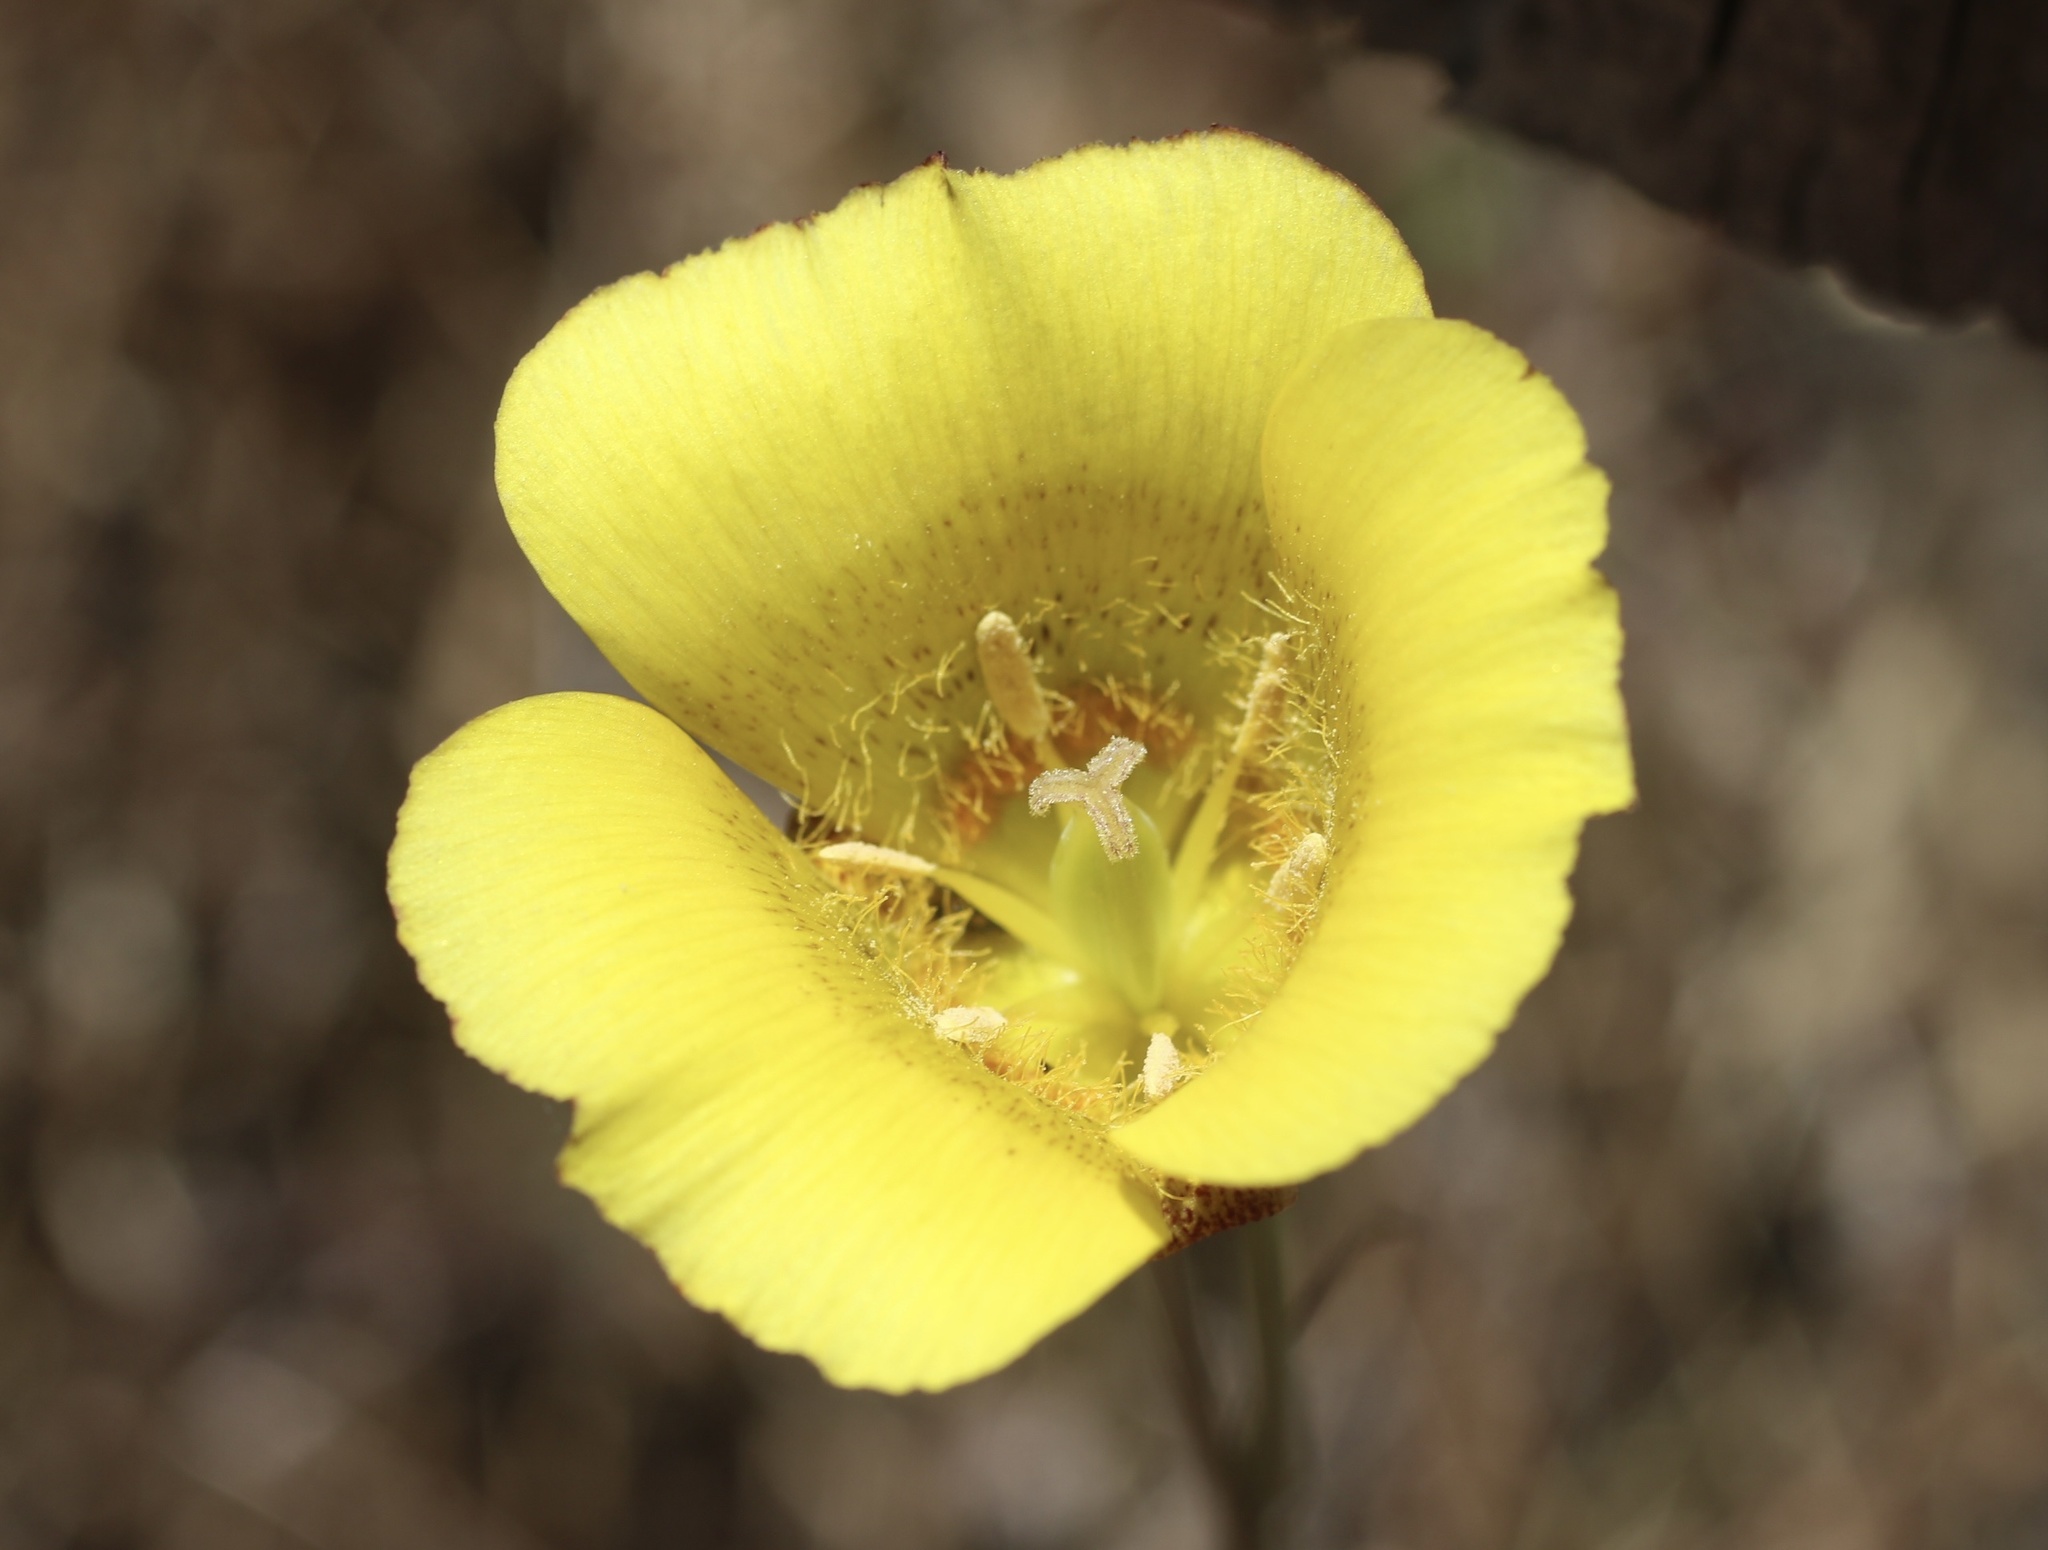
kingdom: Plantae
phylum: Tracheophyta
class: Liliopsida
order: Liliales
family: Liliaceae
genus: Calochortus
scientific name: Calochortus luteus
